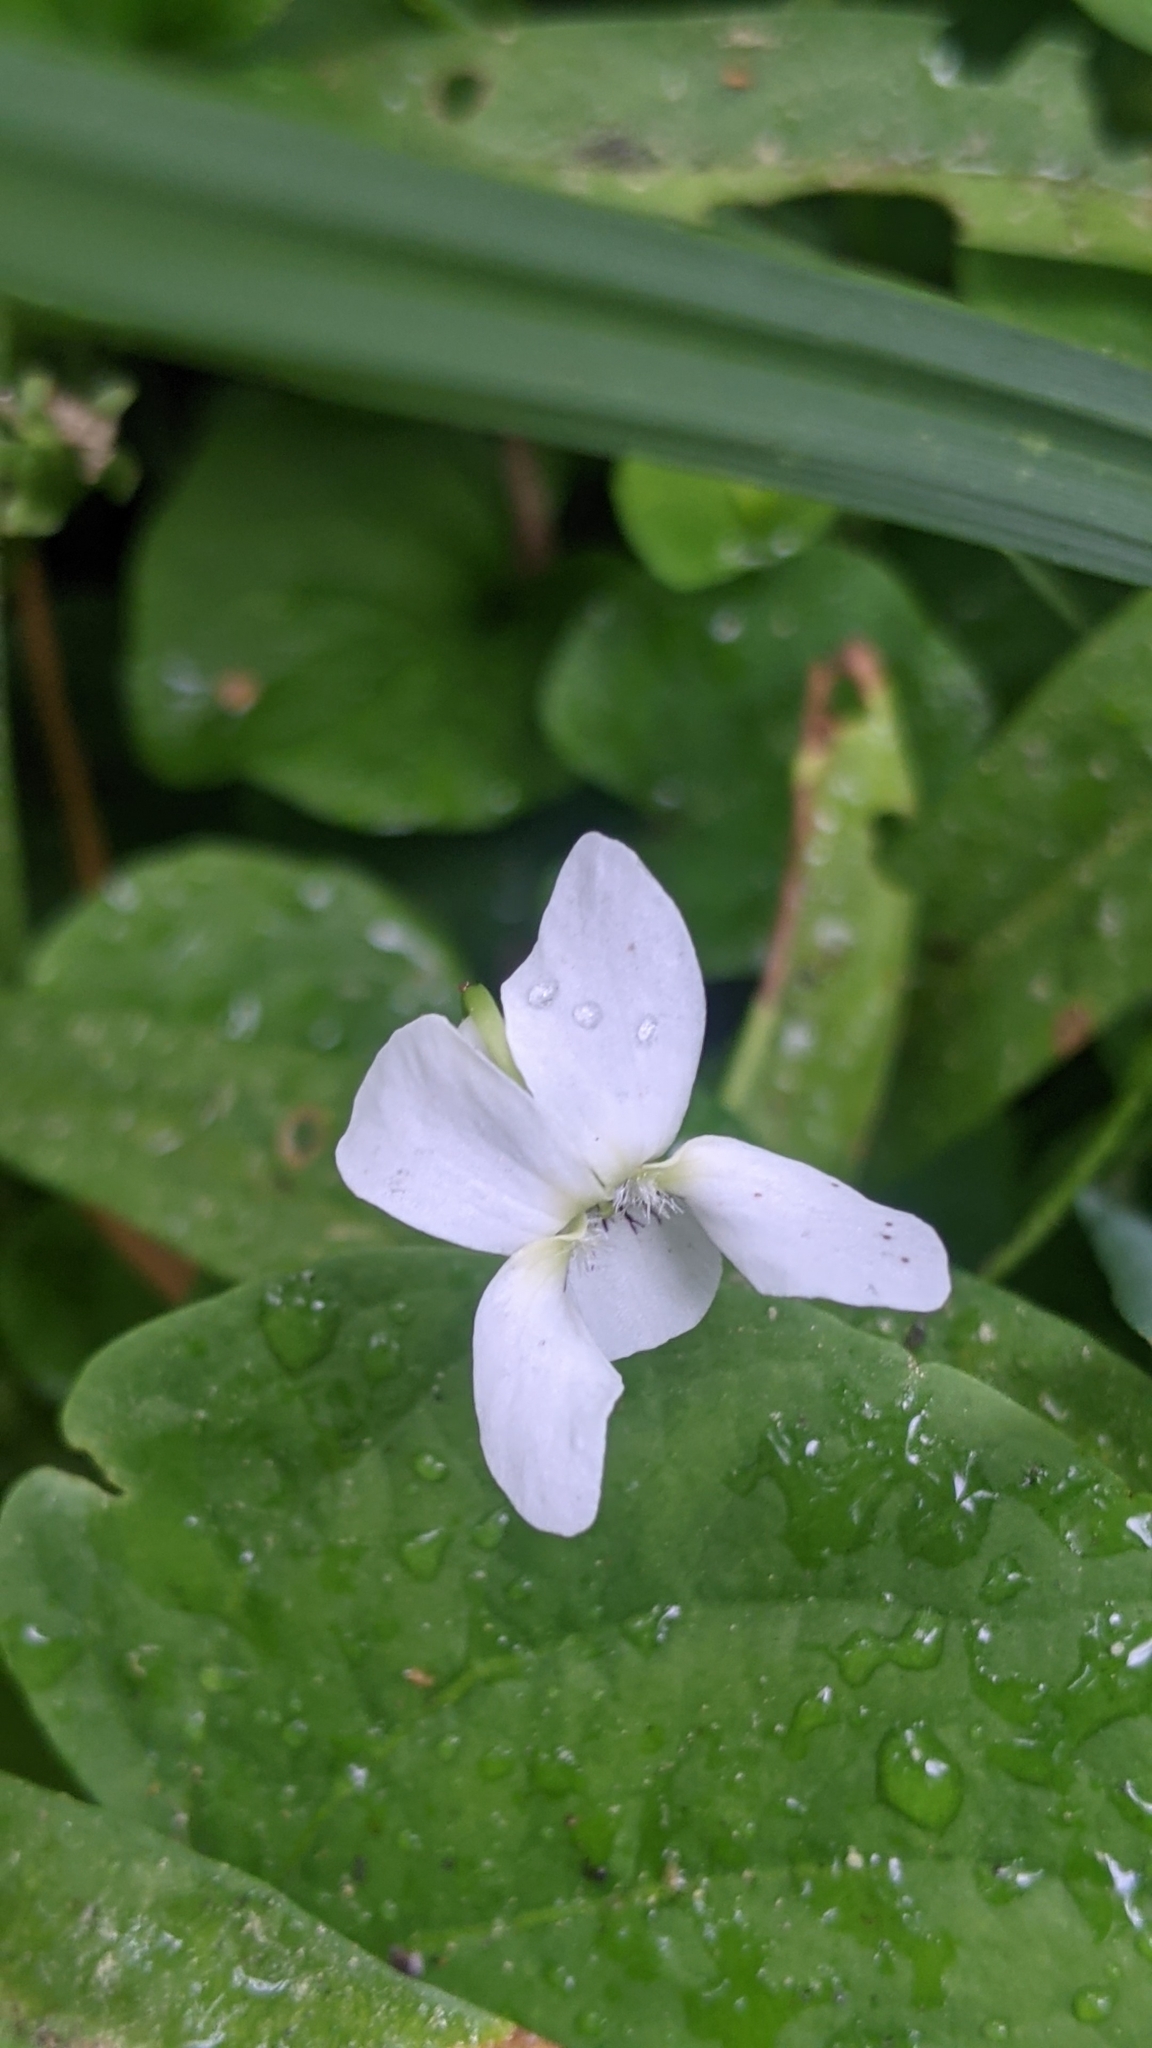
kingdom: Plantae
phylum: Tracheophyta
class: Magnoliopsida
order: Malpighiales
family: Violaceae
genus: Viola
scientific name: Viola macloskeyi
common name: Macloskey's violet
